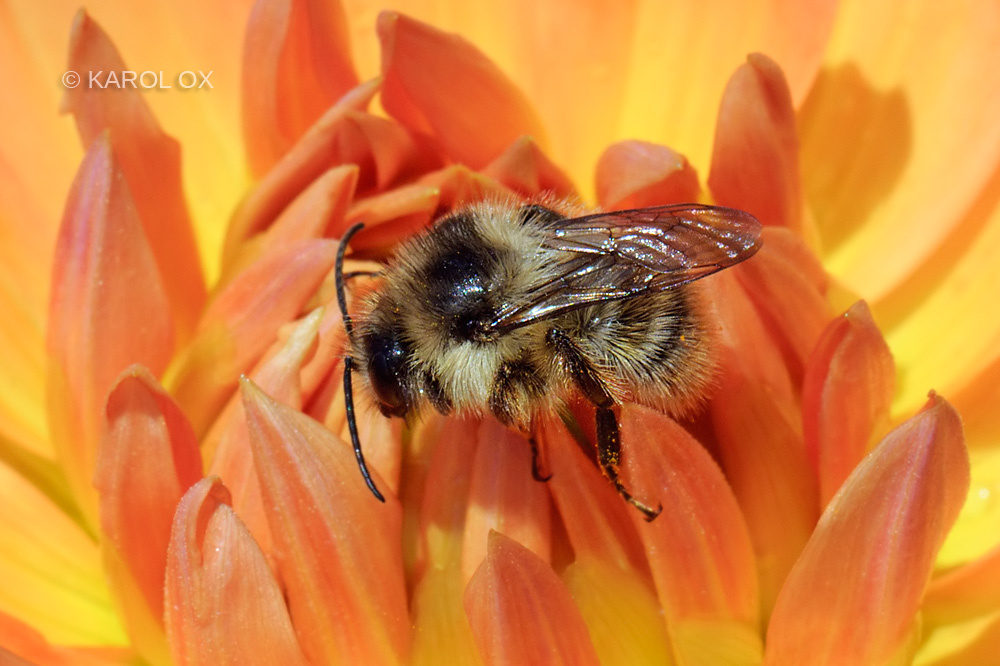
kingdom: Animalia
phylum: Arthropoda
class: Insecta
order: Hymenoptera
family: Apidae
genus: Bombus
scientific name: Bombus sylvarum
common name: Shrill carder bee
